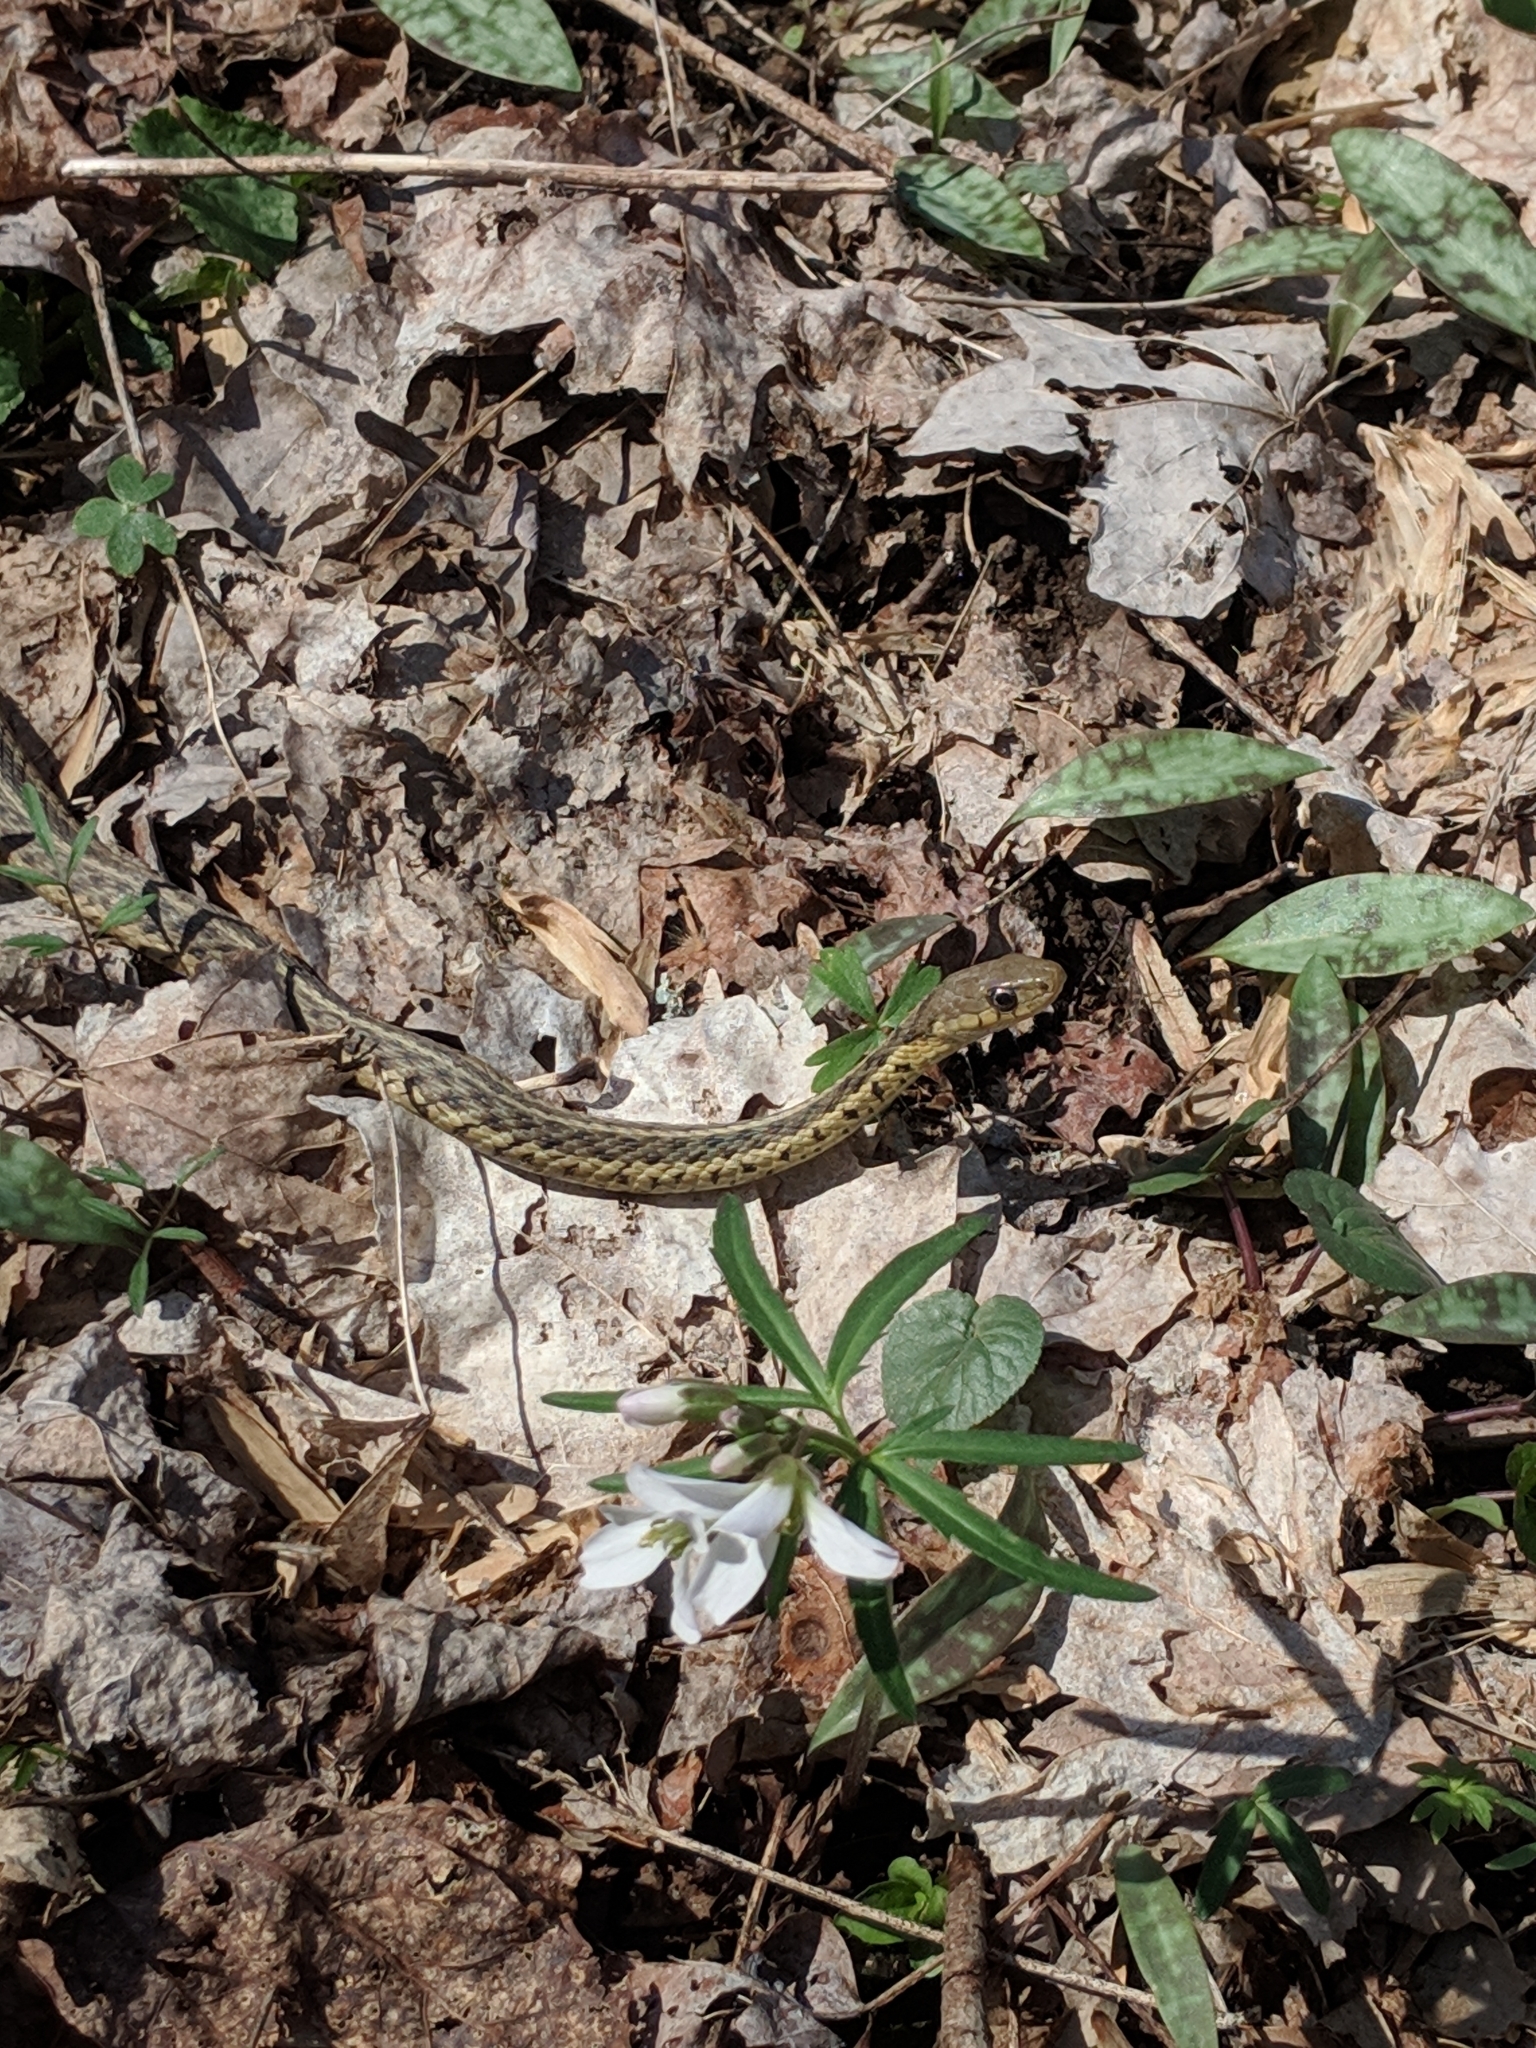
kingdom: Animalia
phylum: Chordata
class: Squamata
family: Colubridae
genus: Thamnophis
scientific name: Thamnophis sirtalis
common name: Common garter snake
